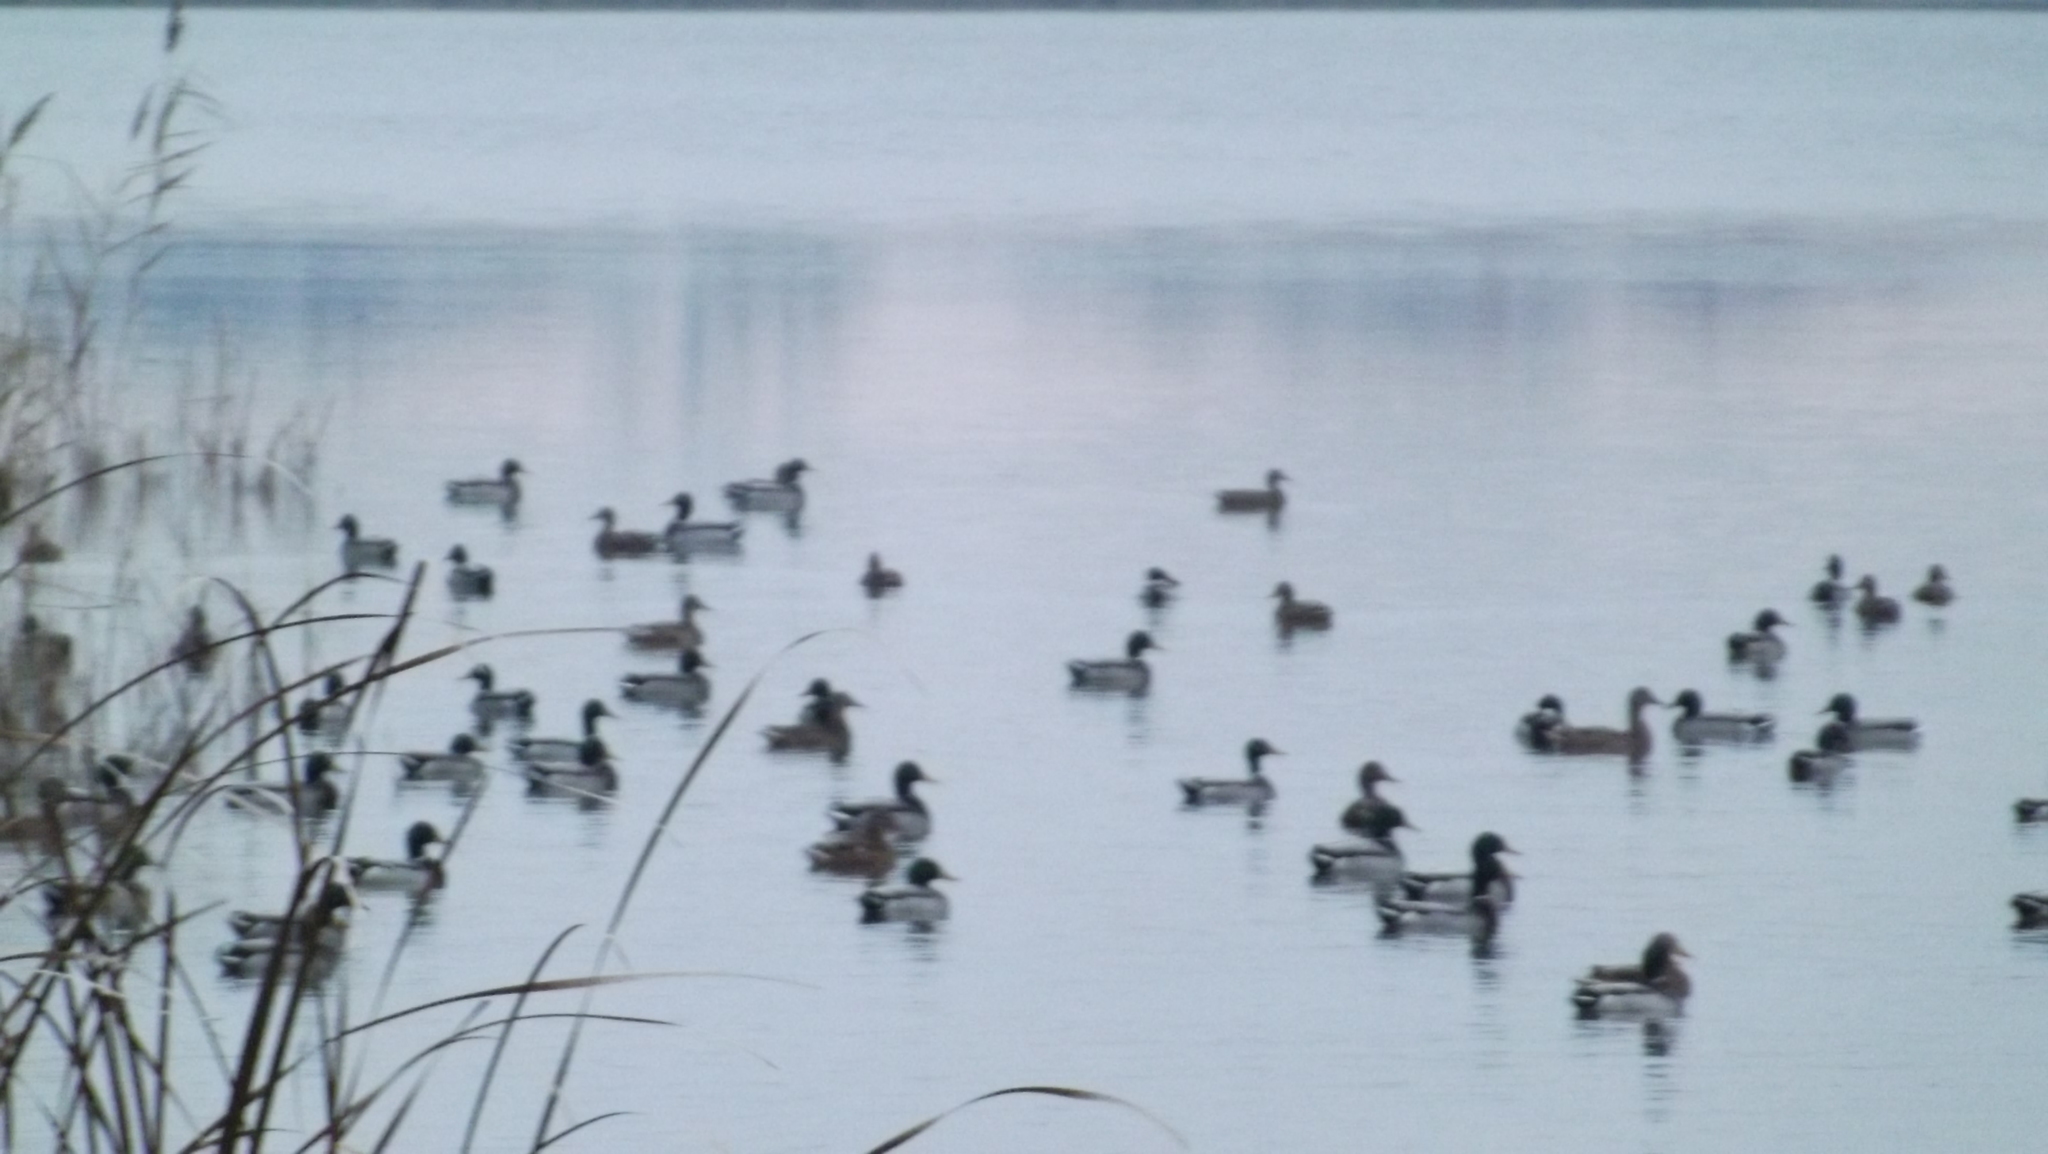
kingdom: Animalia
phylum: Chordata
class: Aves
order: Anseriformes
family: Anatidae
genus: Anas
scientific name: Anas platyrhynchos
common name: Mallard
